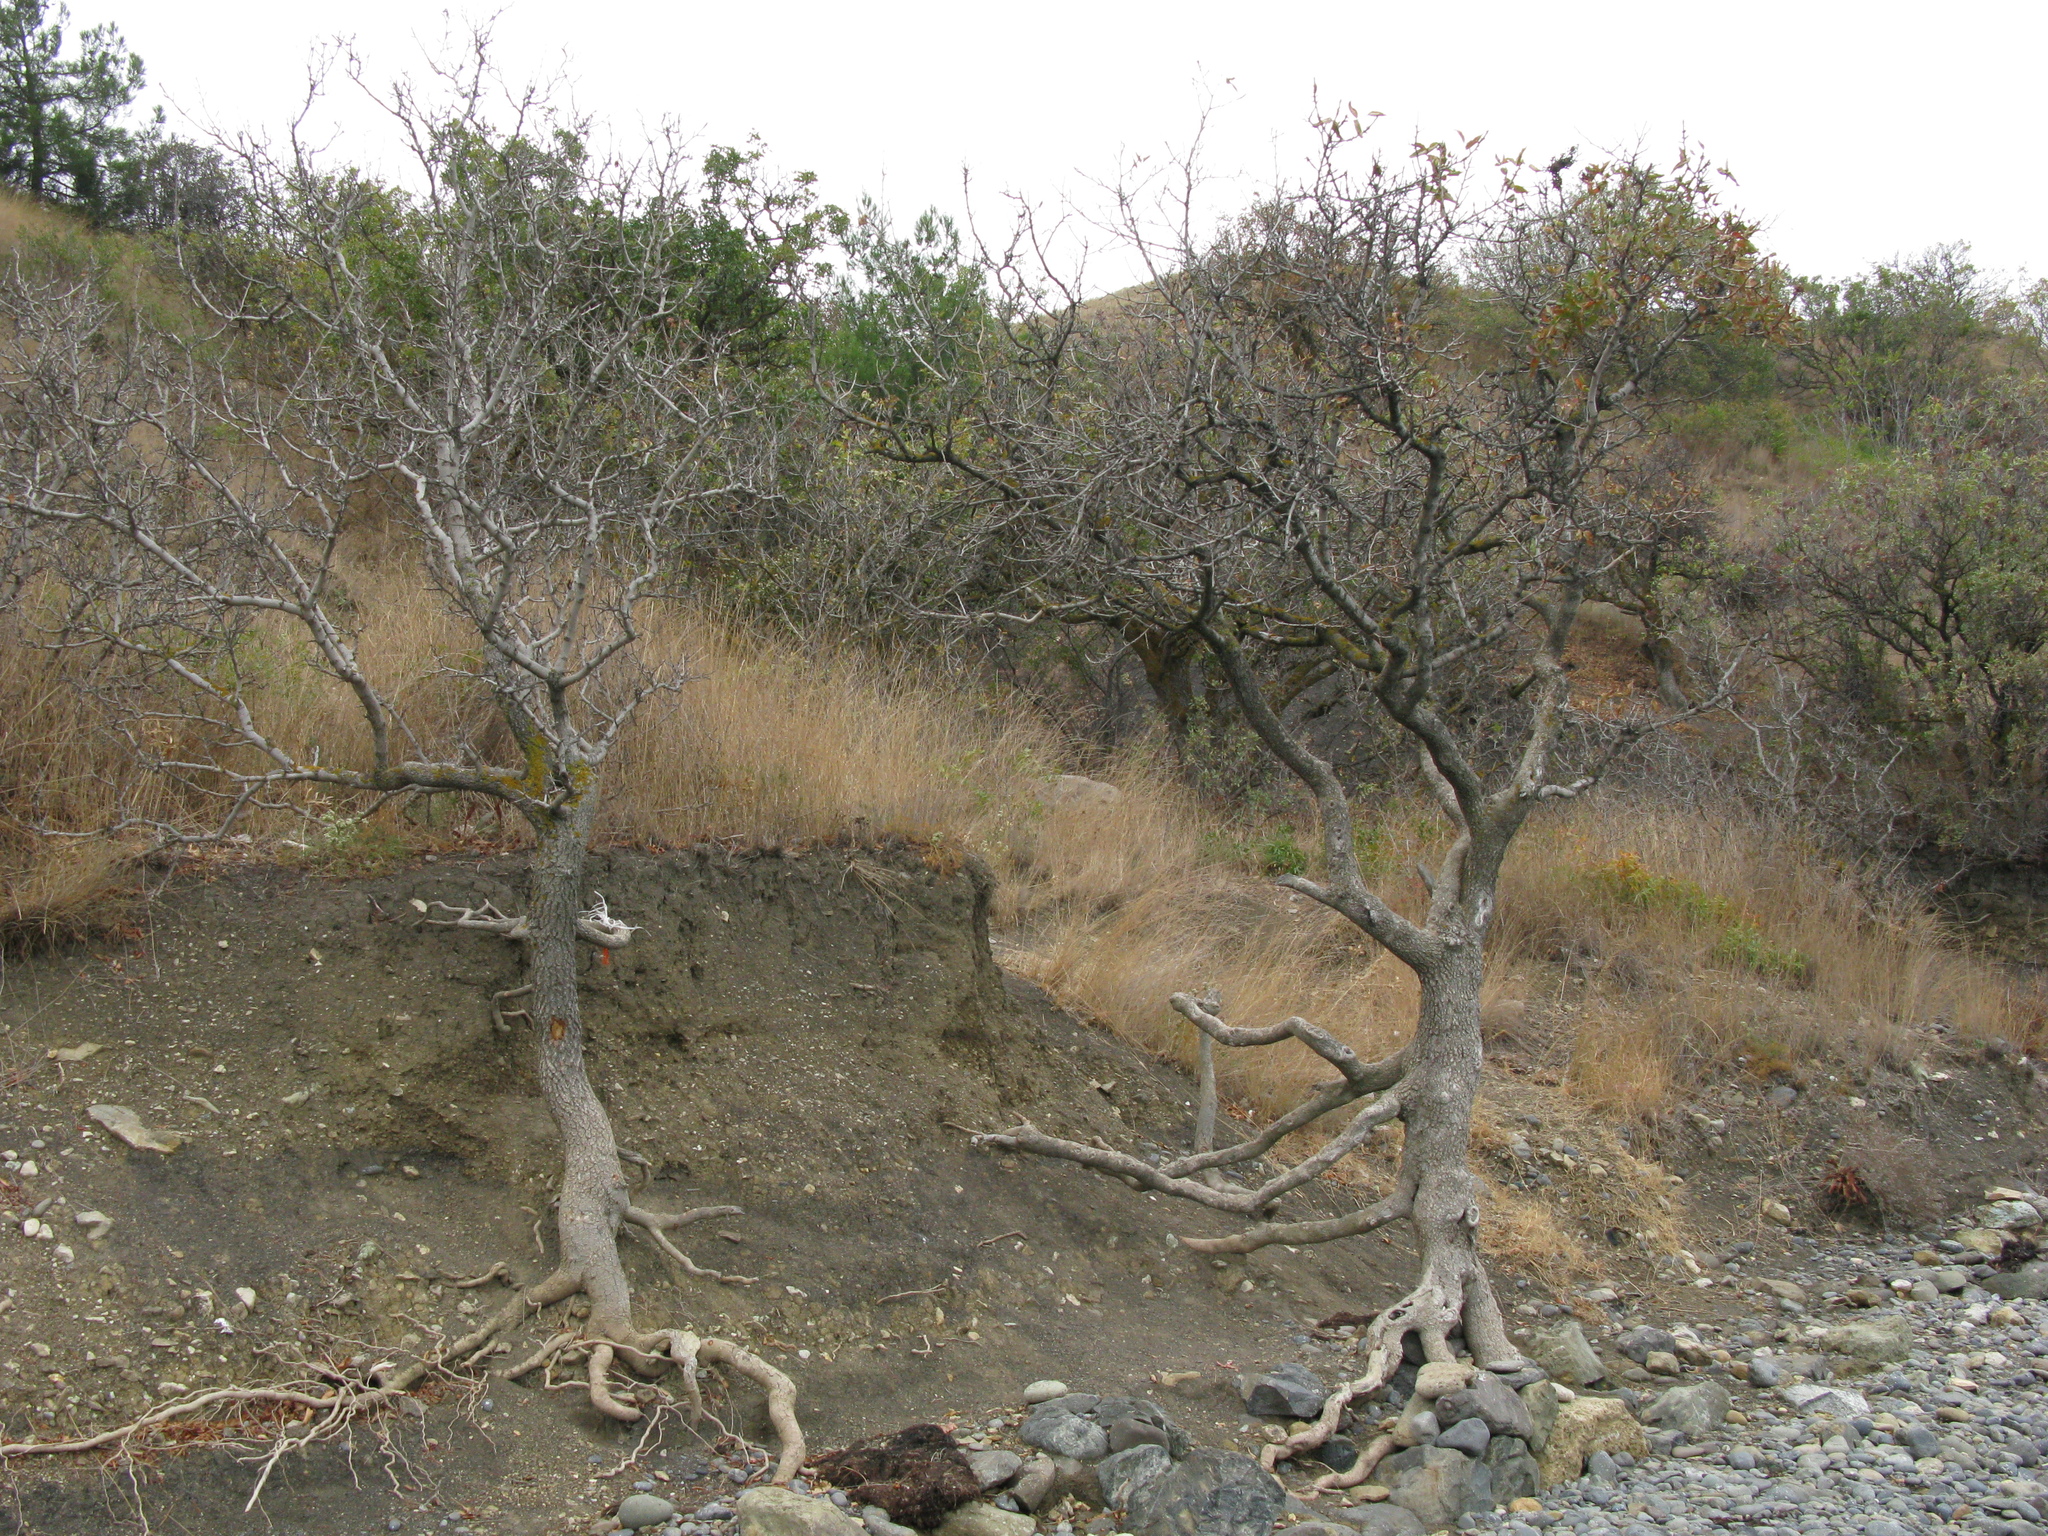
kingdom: Plantae
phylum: Tracheophyta
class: Magnoliopsida
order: Sapindales
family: Anacardiaceae
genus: Pistacia
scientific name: Pistacia atlantica
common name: Mt. atlas mastic tree
